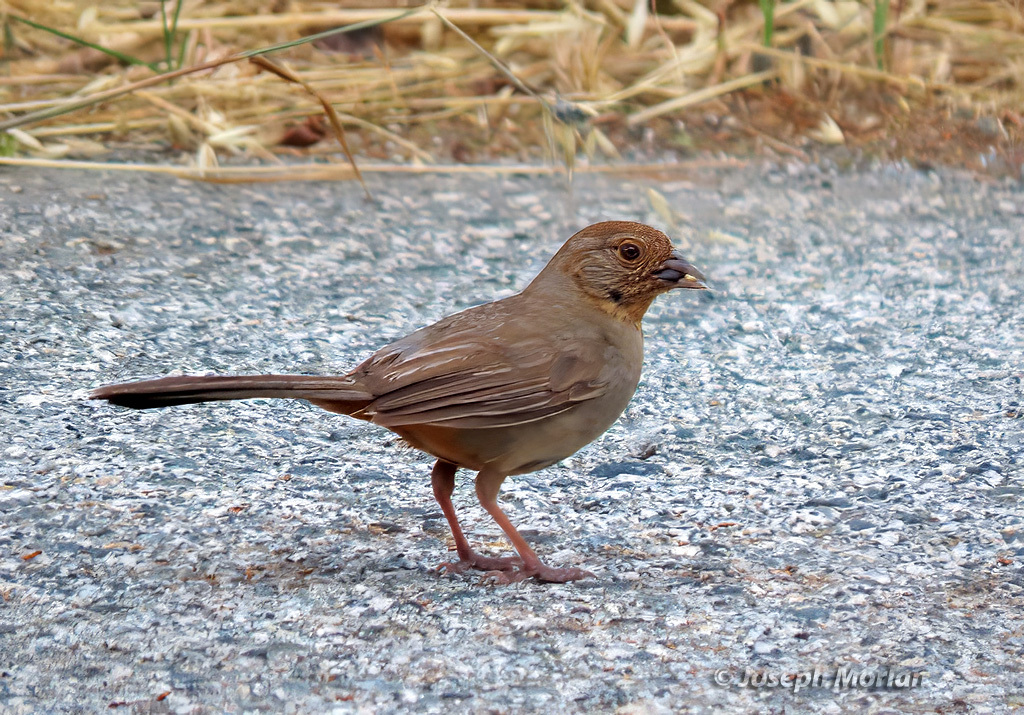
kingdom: Animalia
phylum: Chordata
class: Aves
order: Passeriformes
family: Passerellidae
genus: Melozone
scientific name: Melozone crissalis
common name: California towhee
